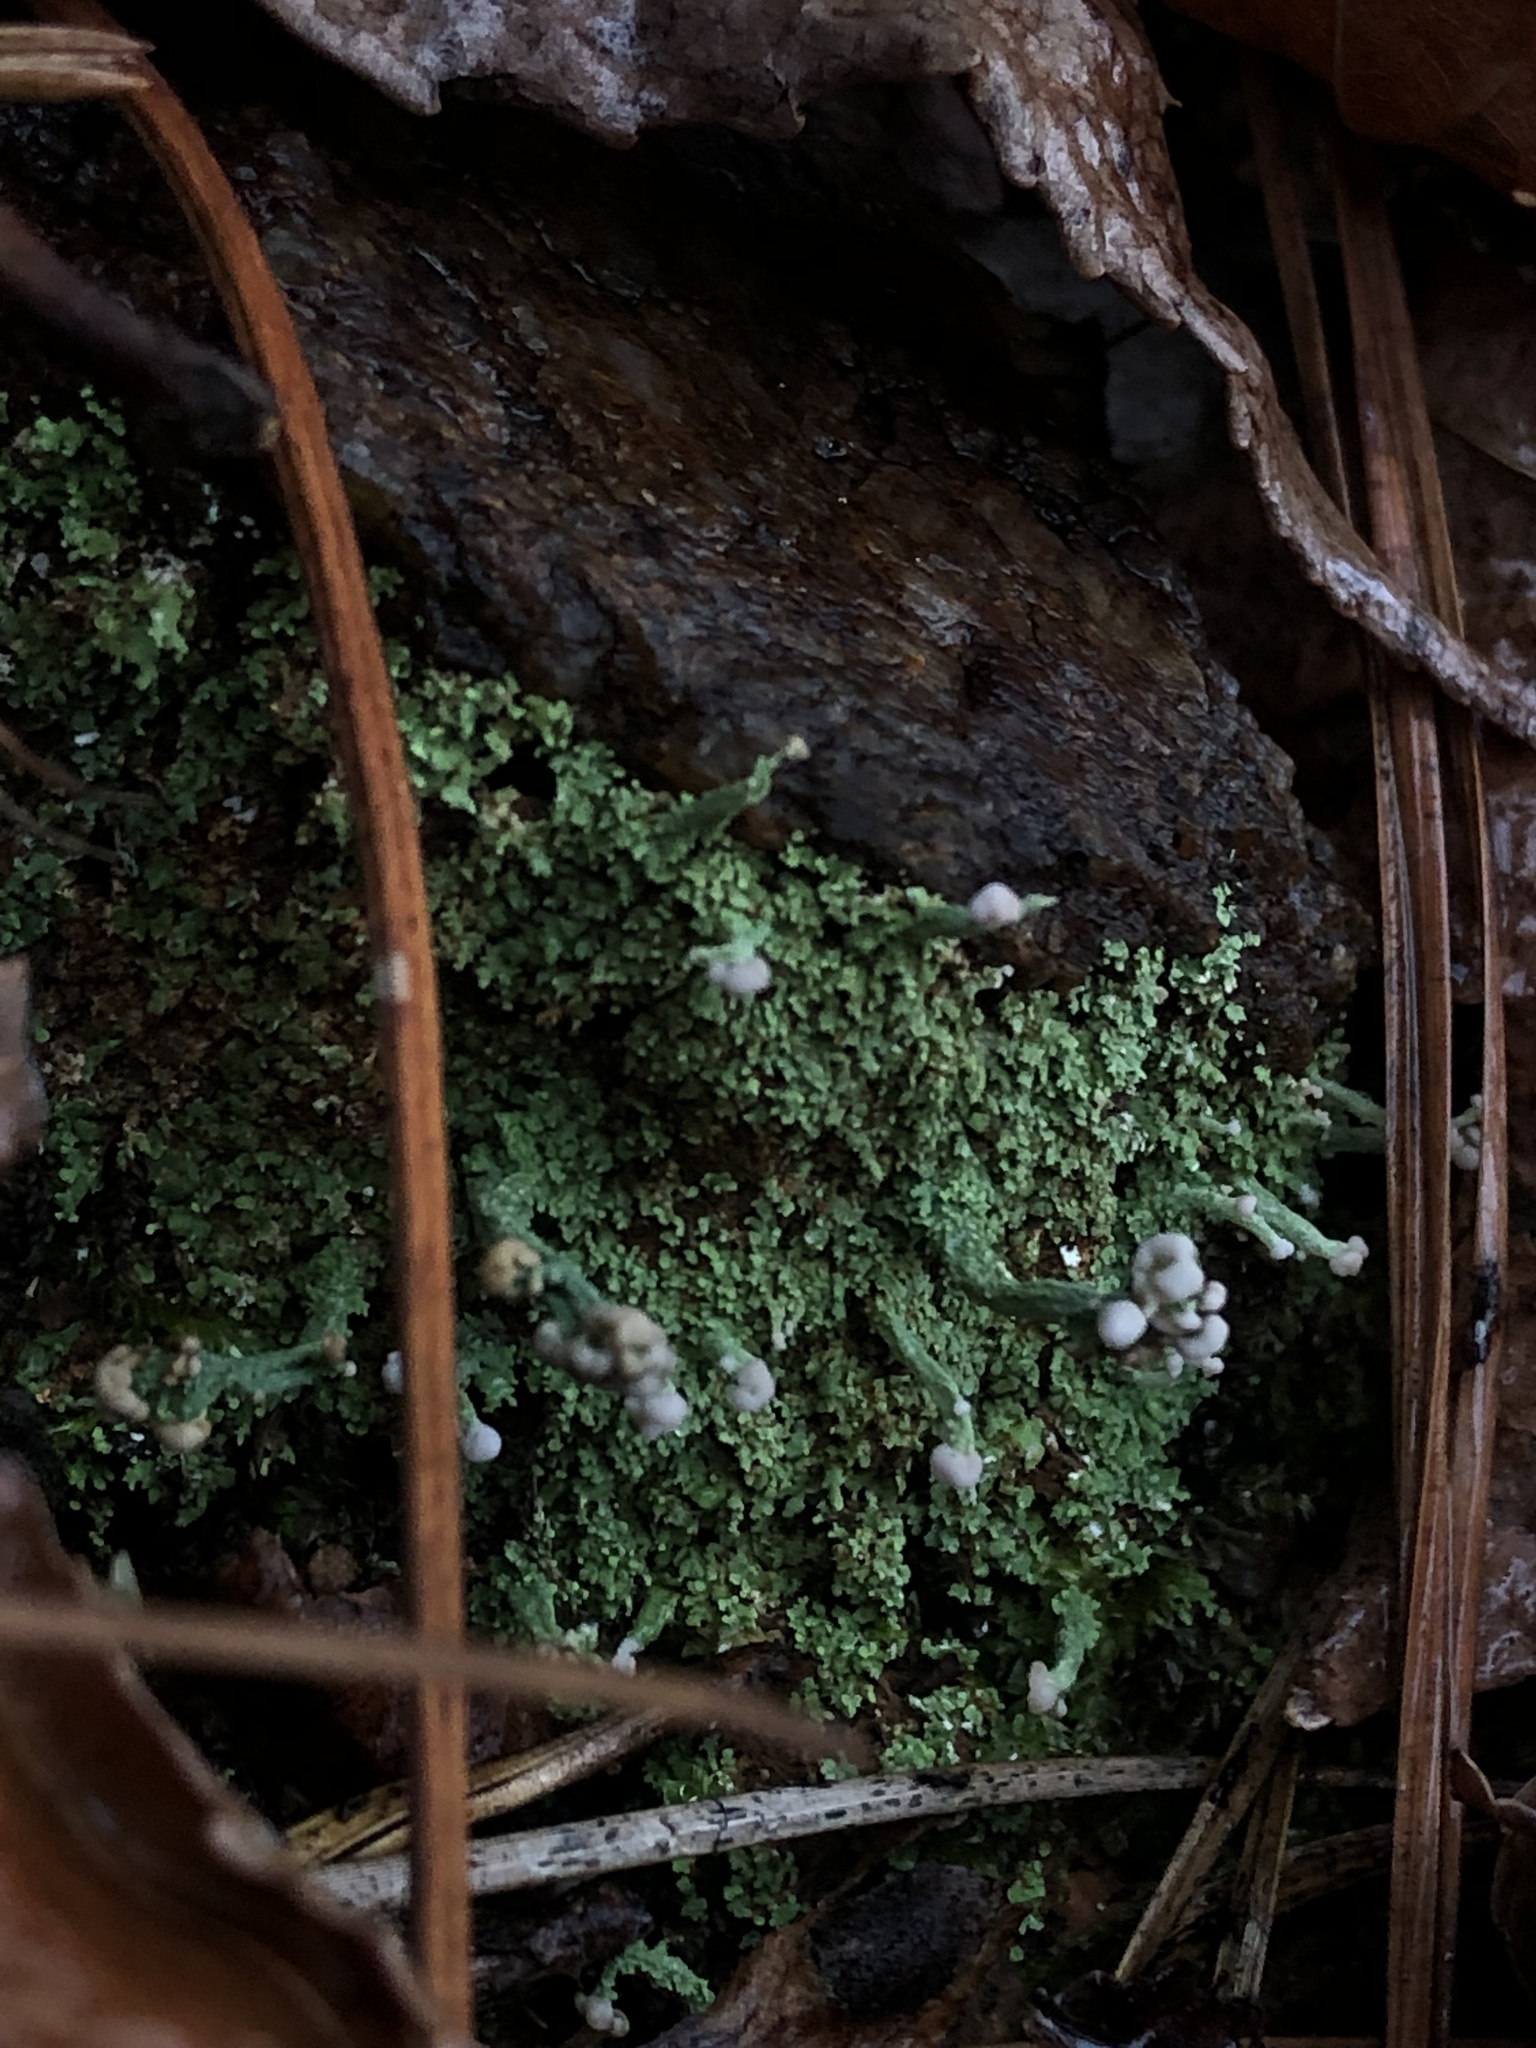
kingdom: Fungi
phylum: Ascomycota
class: Lecanoromycetes
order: Lecanorales
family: Cladoniaceae
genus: Cladonia
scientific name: Cladonia peziziformis
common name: Cup lichen
